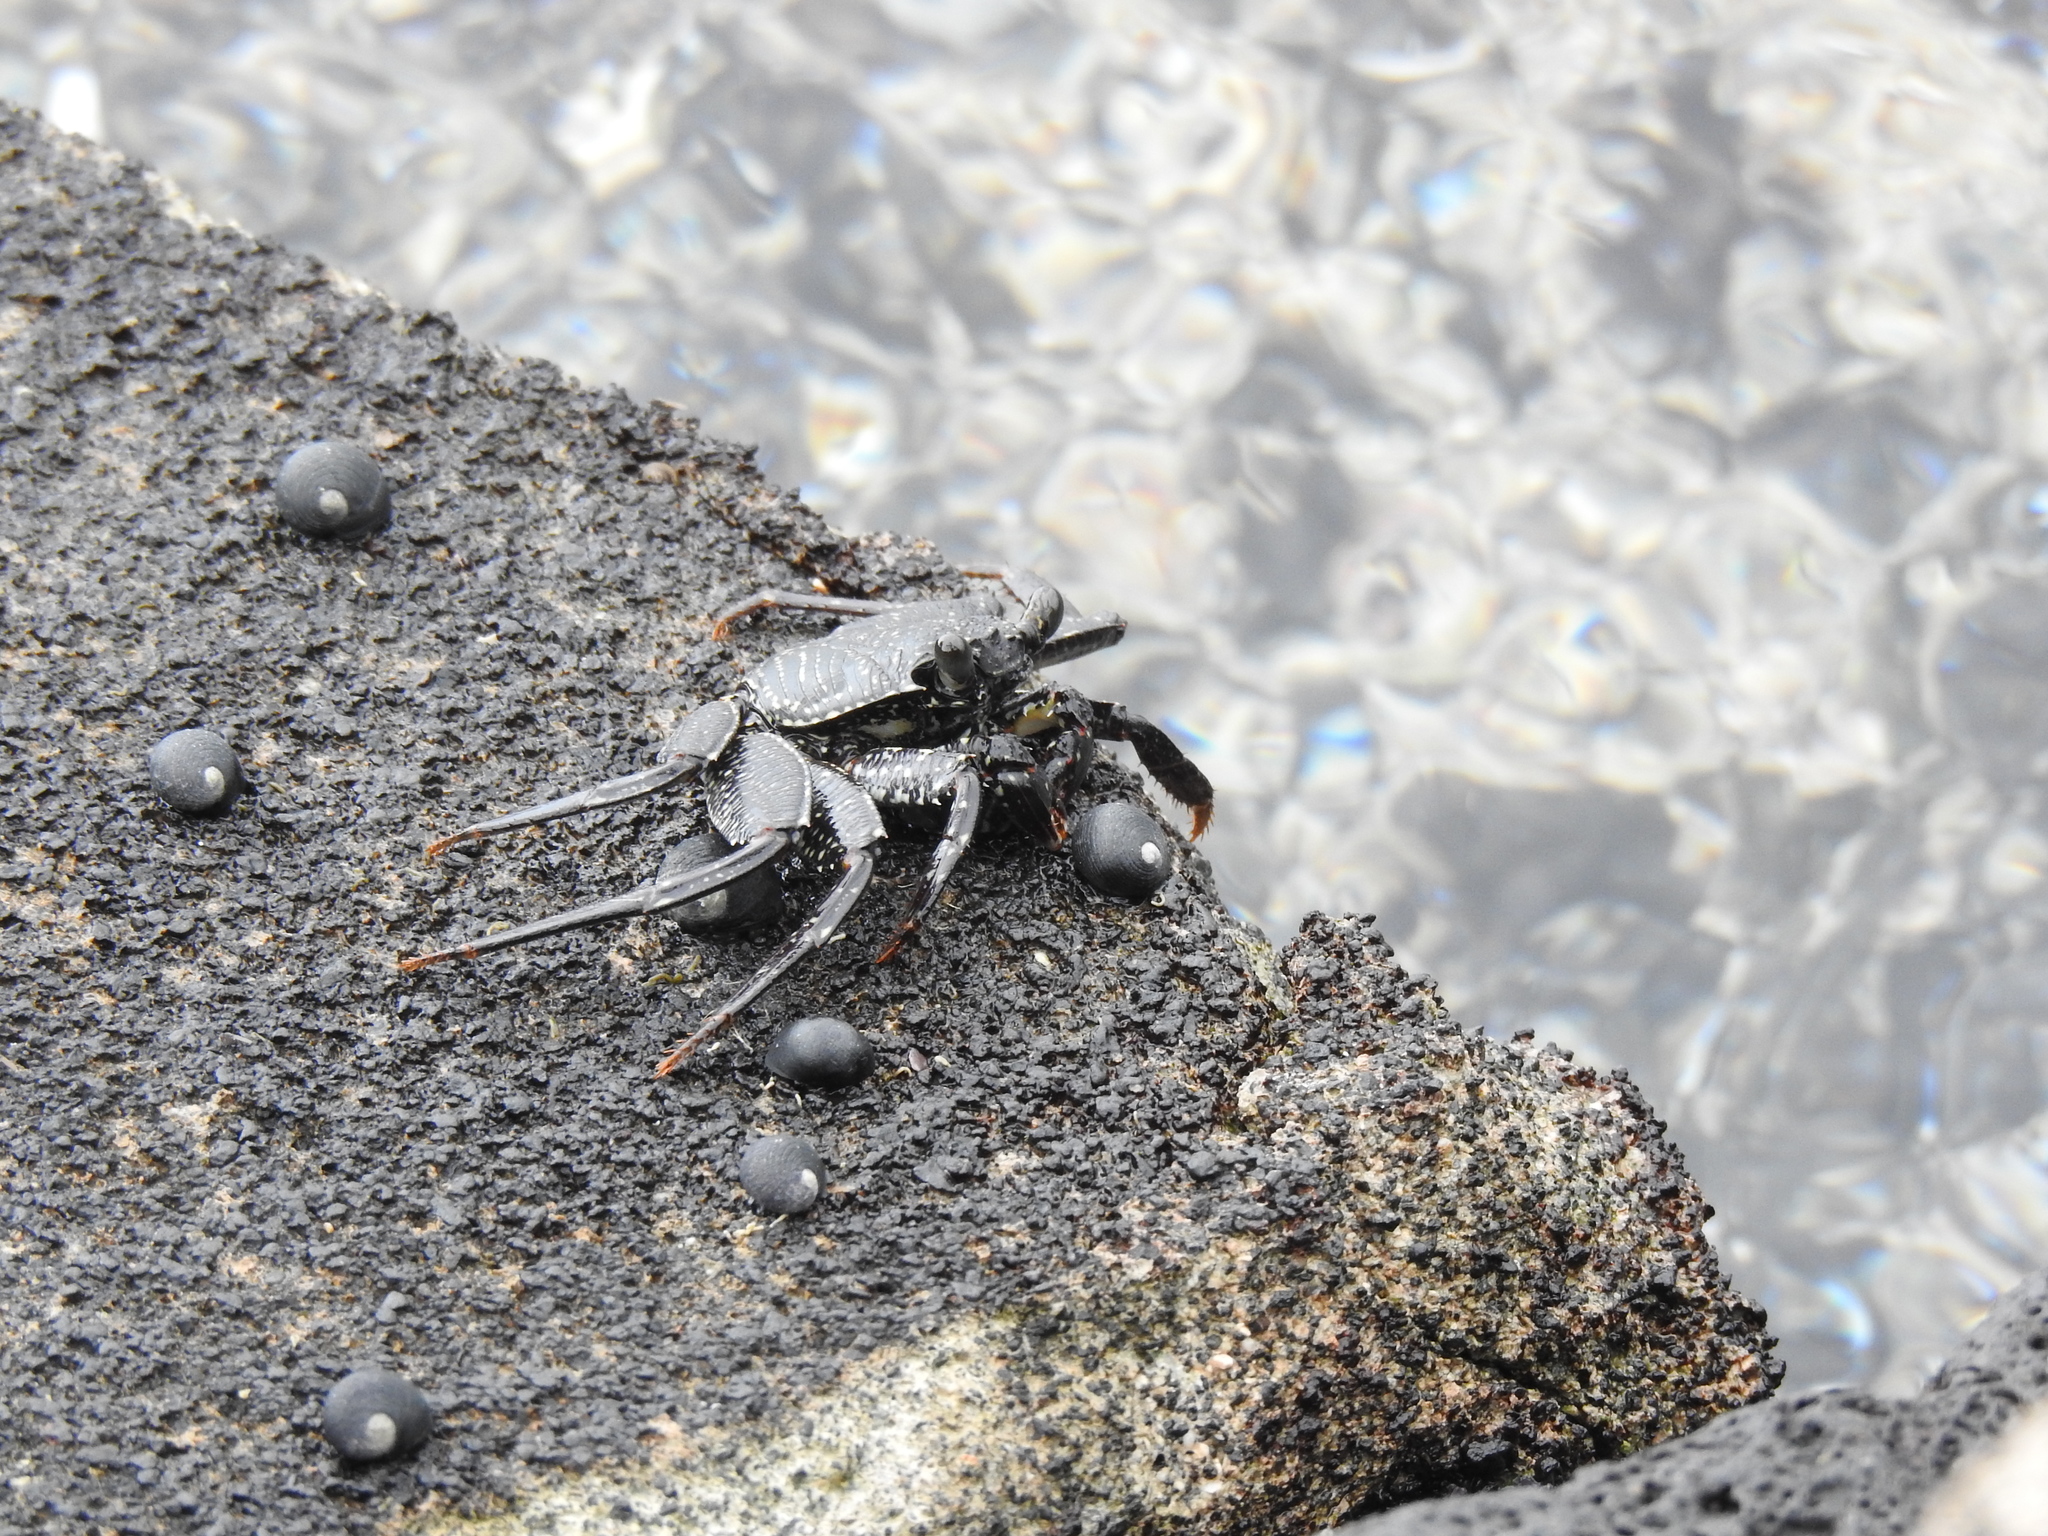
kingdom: Animalia
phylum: Arthropoda
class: Malacostraca
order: Decapoda
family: Grapsidae
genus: Grapsus
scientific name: Grapsus tenuicrustatus
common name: Natal lightfoot crab
